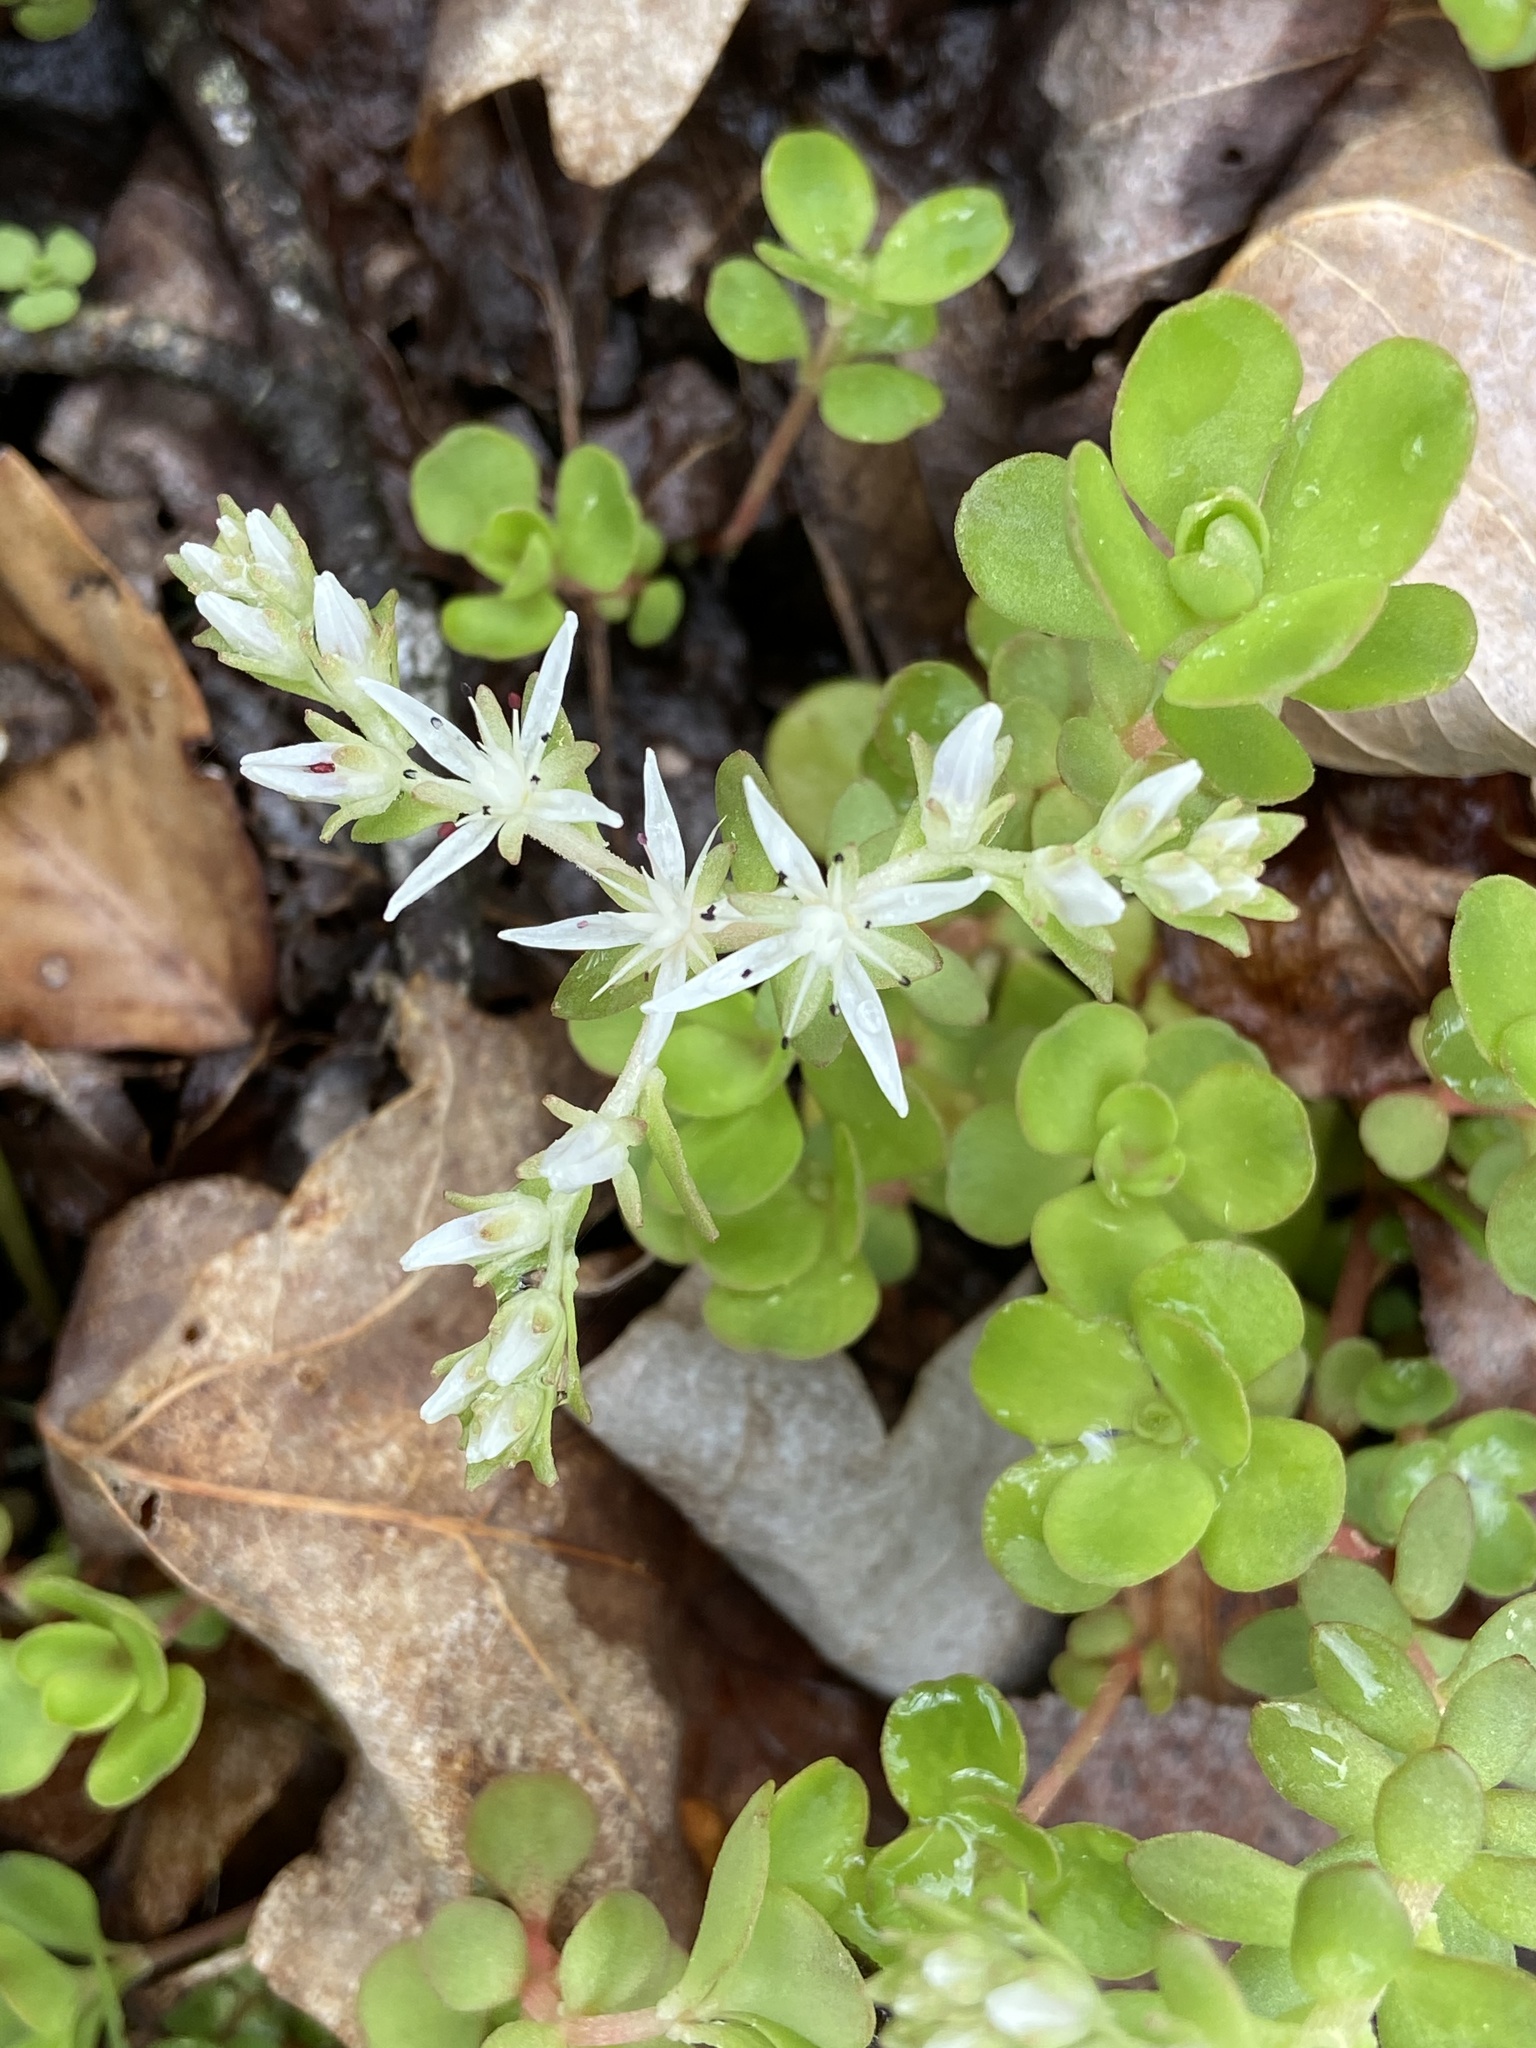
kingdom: Plantae
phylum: Tracheophyta
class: Magnoliopsida
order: Saxifragales
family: Crassulaceae
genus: Sedum
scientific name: Sedum ternatum
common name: Wild stonecrop
